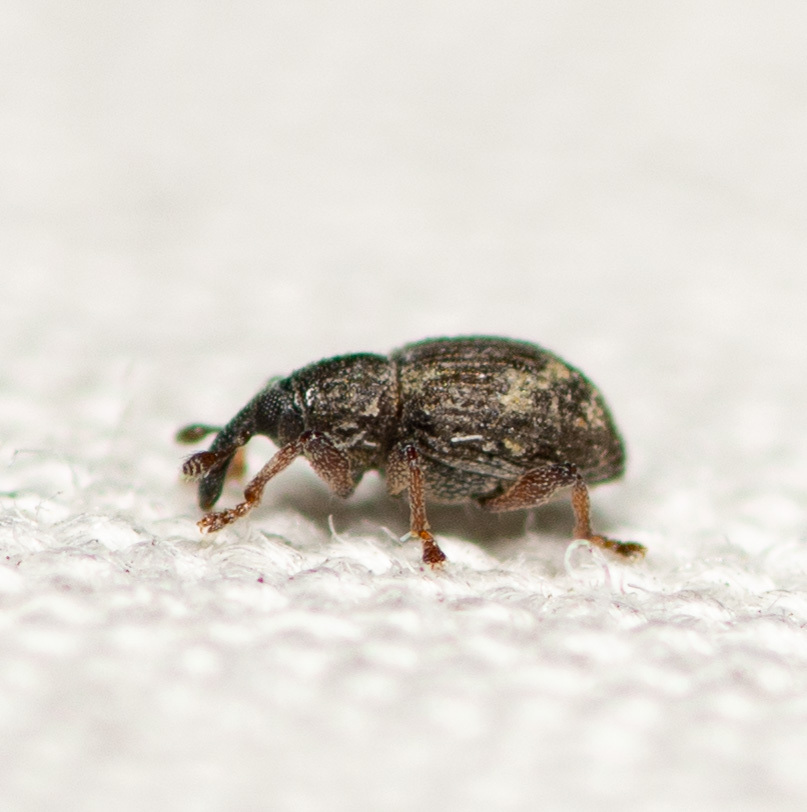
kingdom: Animalia
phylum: Arthropoda
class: Insecta
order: Coleoptera
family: Brachyceridae
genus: Tanysphyrus
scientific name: Tanysphyrus lemnae
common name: Duckweed weevil
